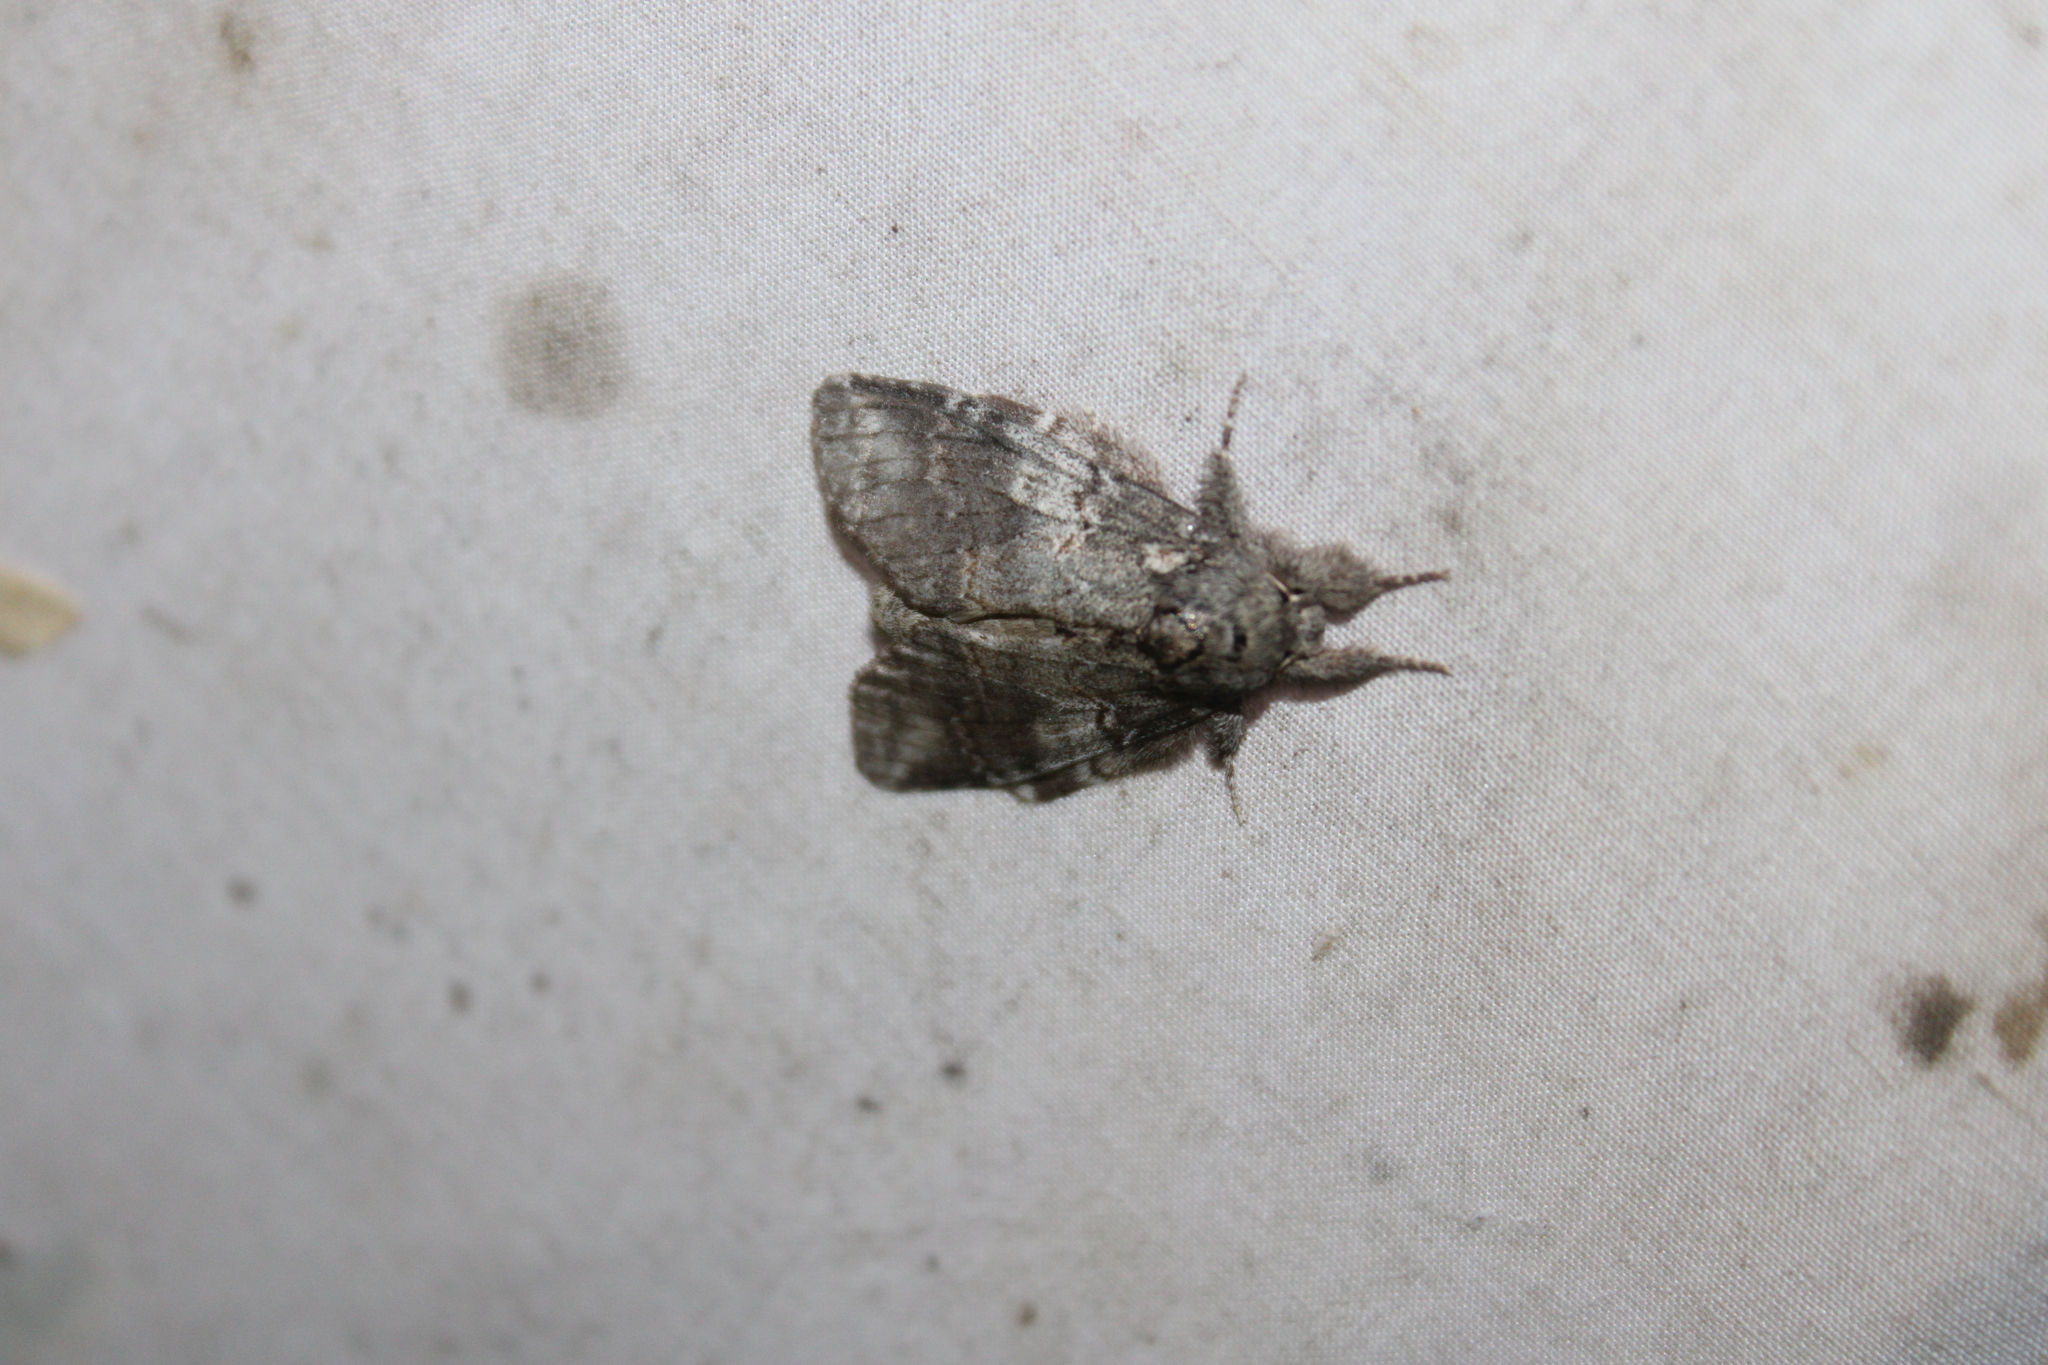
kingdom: Animalia
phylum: Arthropoda
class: Insecta
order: Lepidoptera
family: Notodontidae
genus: Peridea
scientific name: Peridea angulosa
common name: Angulose prominent
